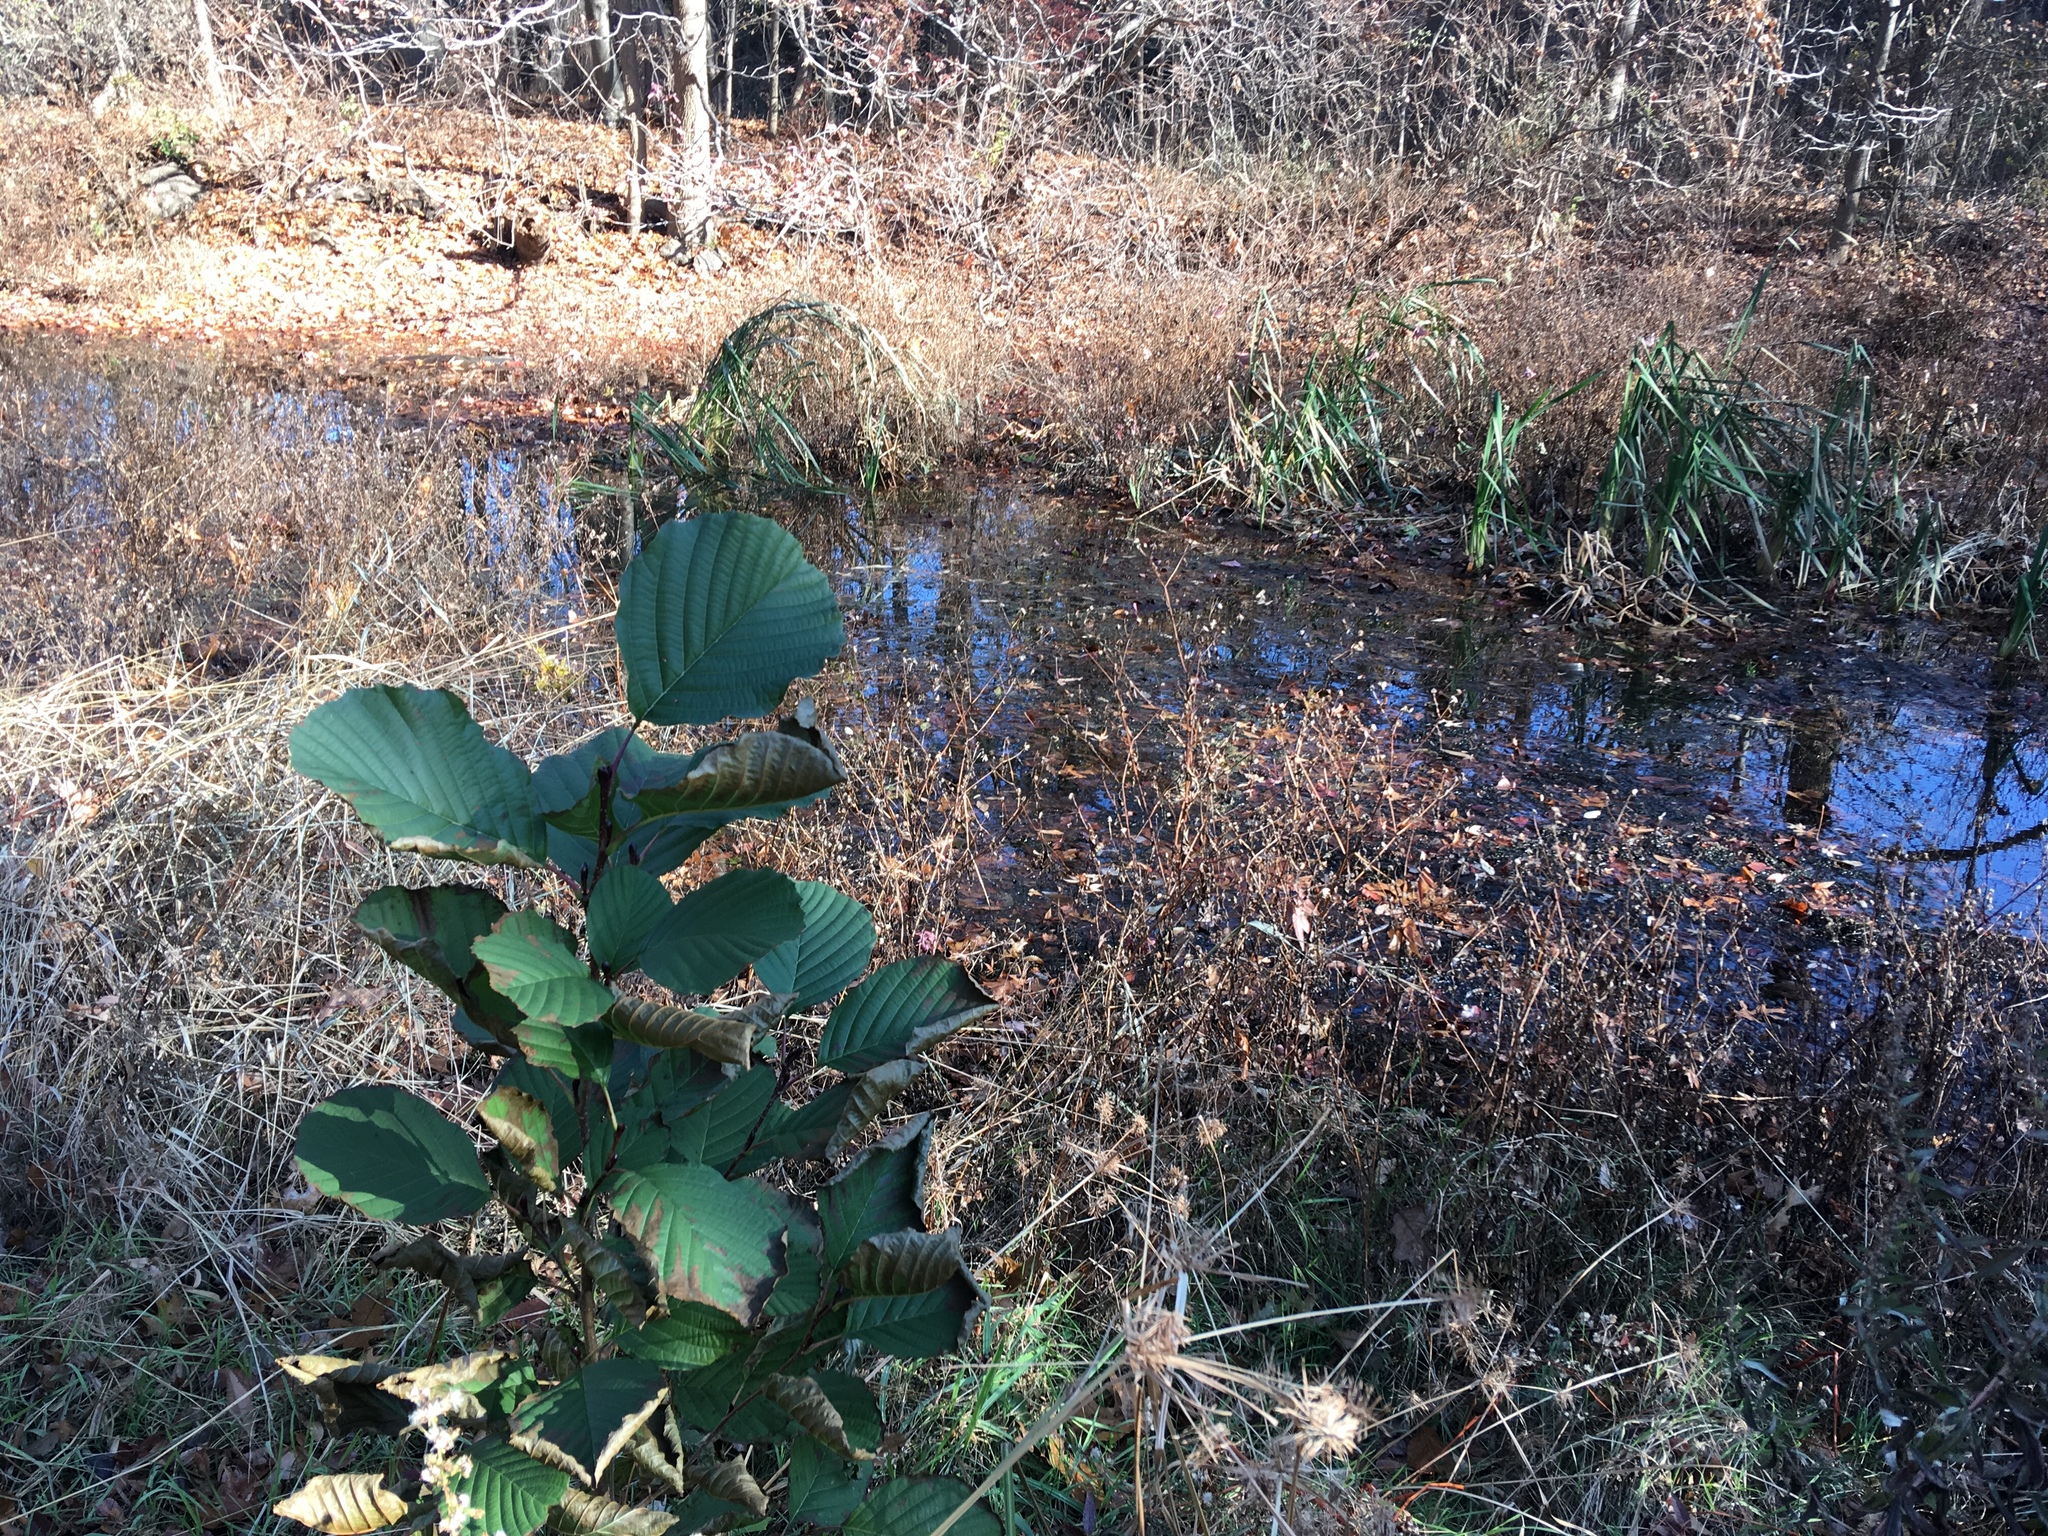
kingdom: Plantae
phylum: Tracheophyta
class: Magnoliopsida
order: Fagales
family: Betulaceae
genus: Alnus
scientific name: Alnus glutinosa
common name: Black alder
